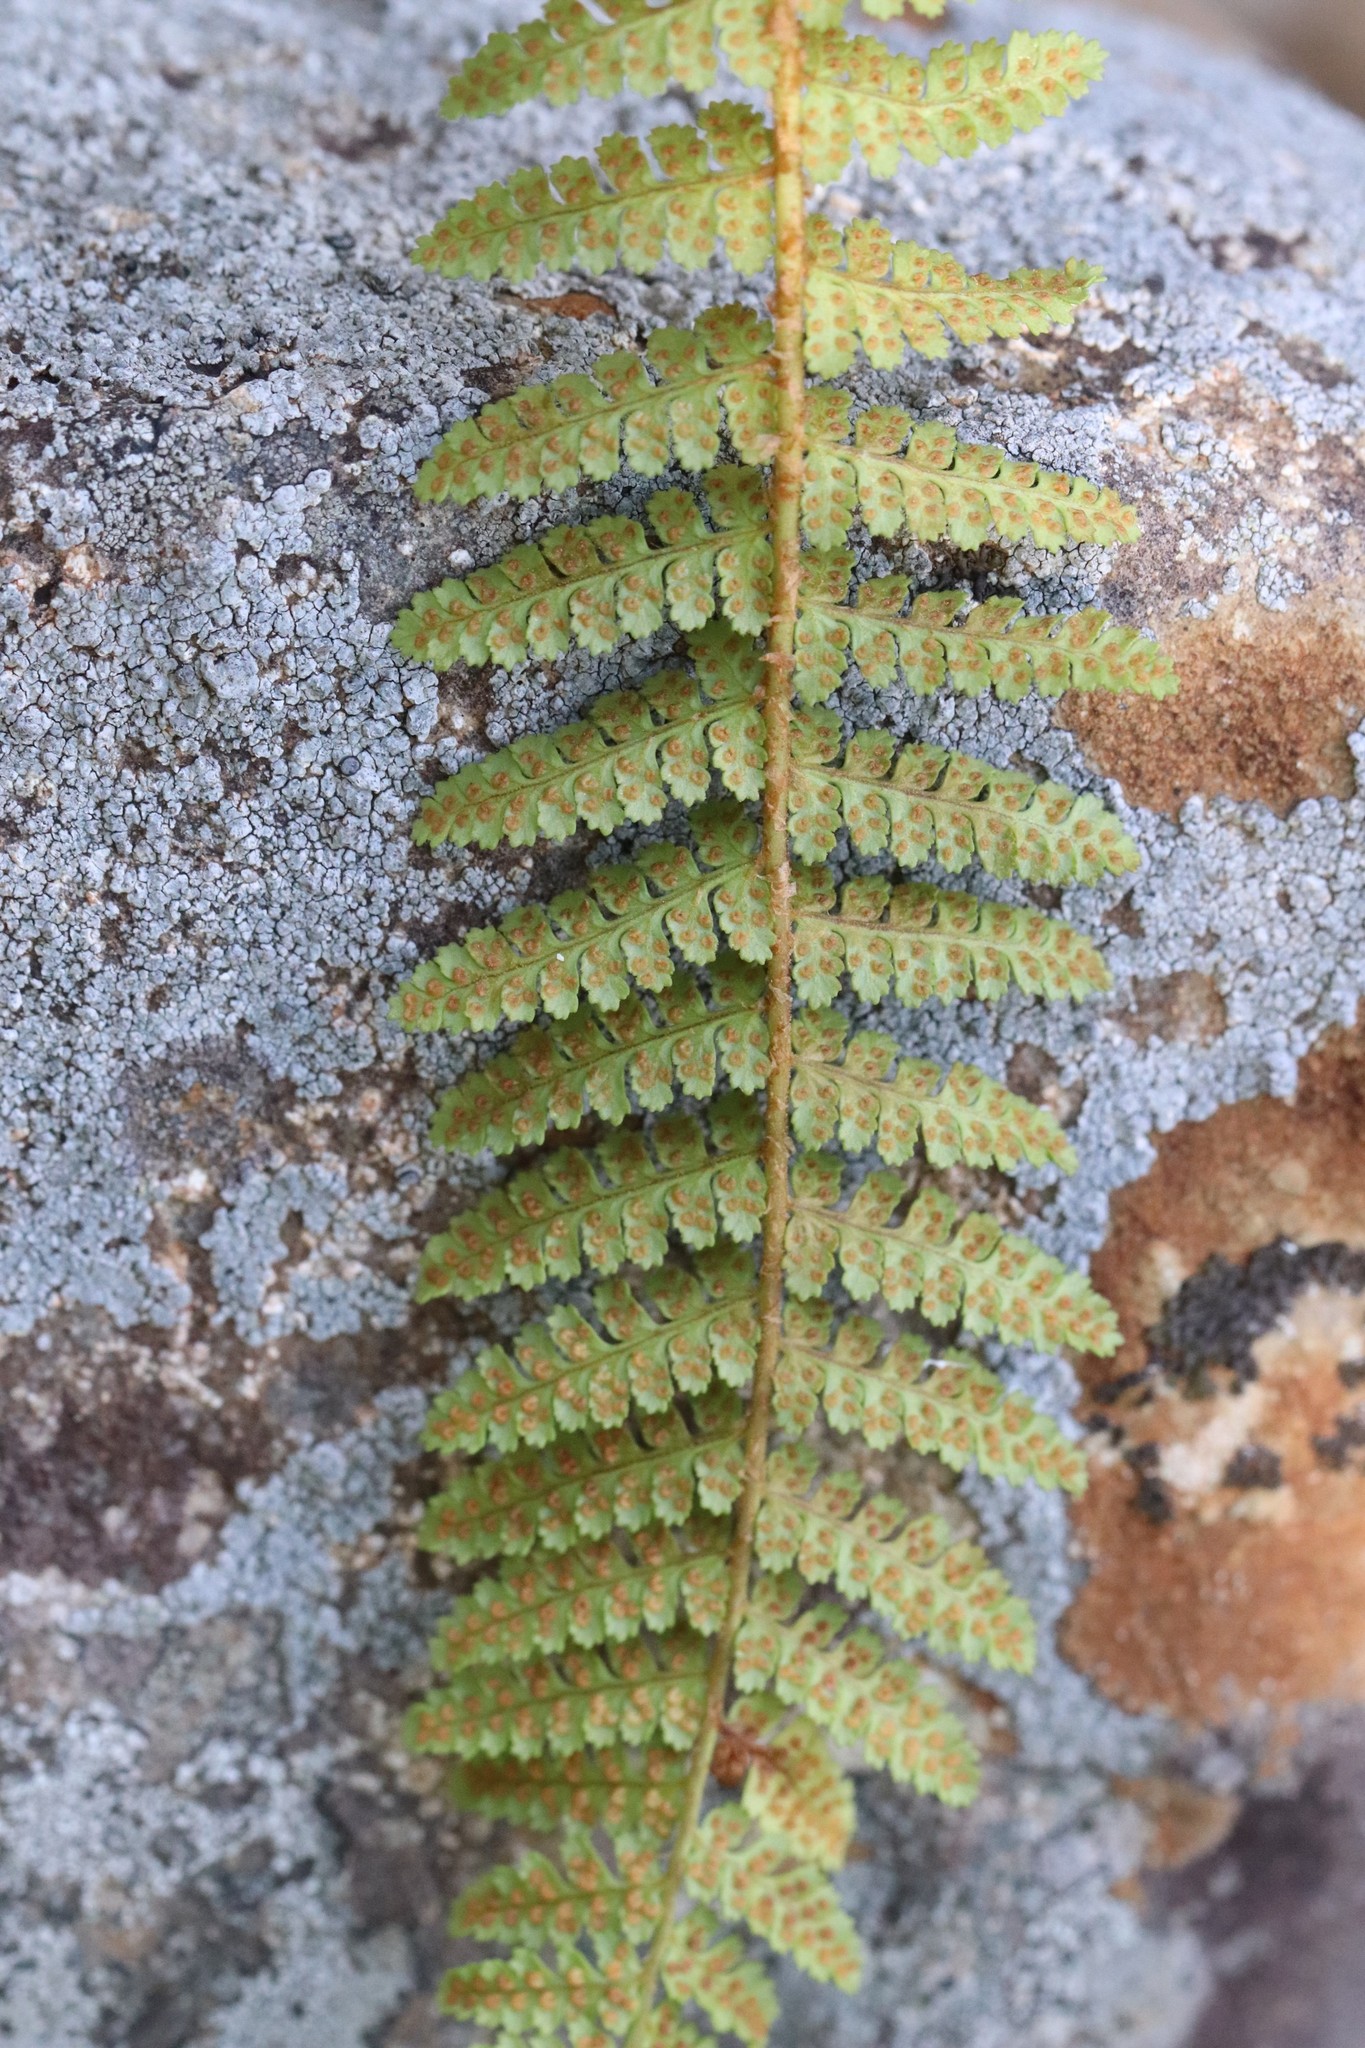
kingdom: Plantae
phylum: Tracheophyta
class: Polypodiopsida
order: Polypodiales
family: Dryopteridaceae
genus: Dryopteris
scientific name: Dryopteris fragrans
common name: Fragrant wood fern
